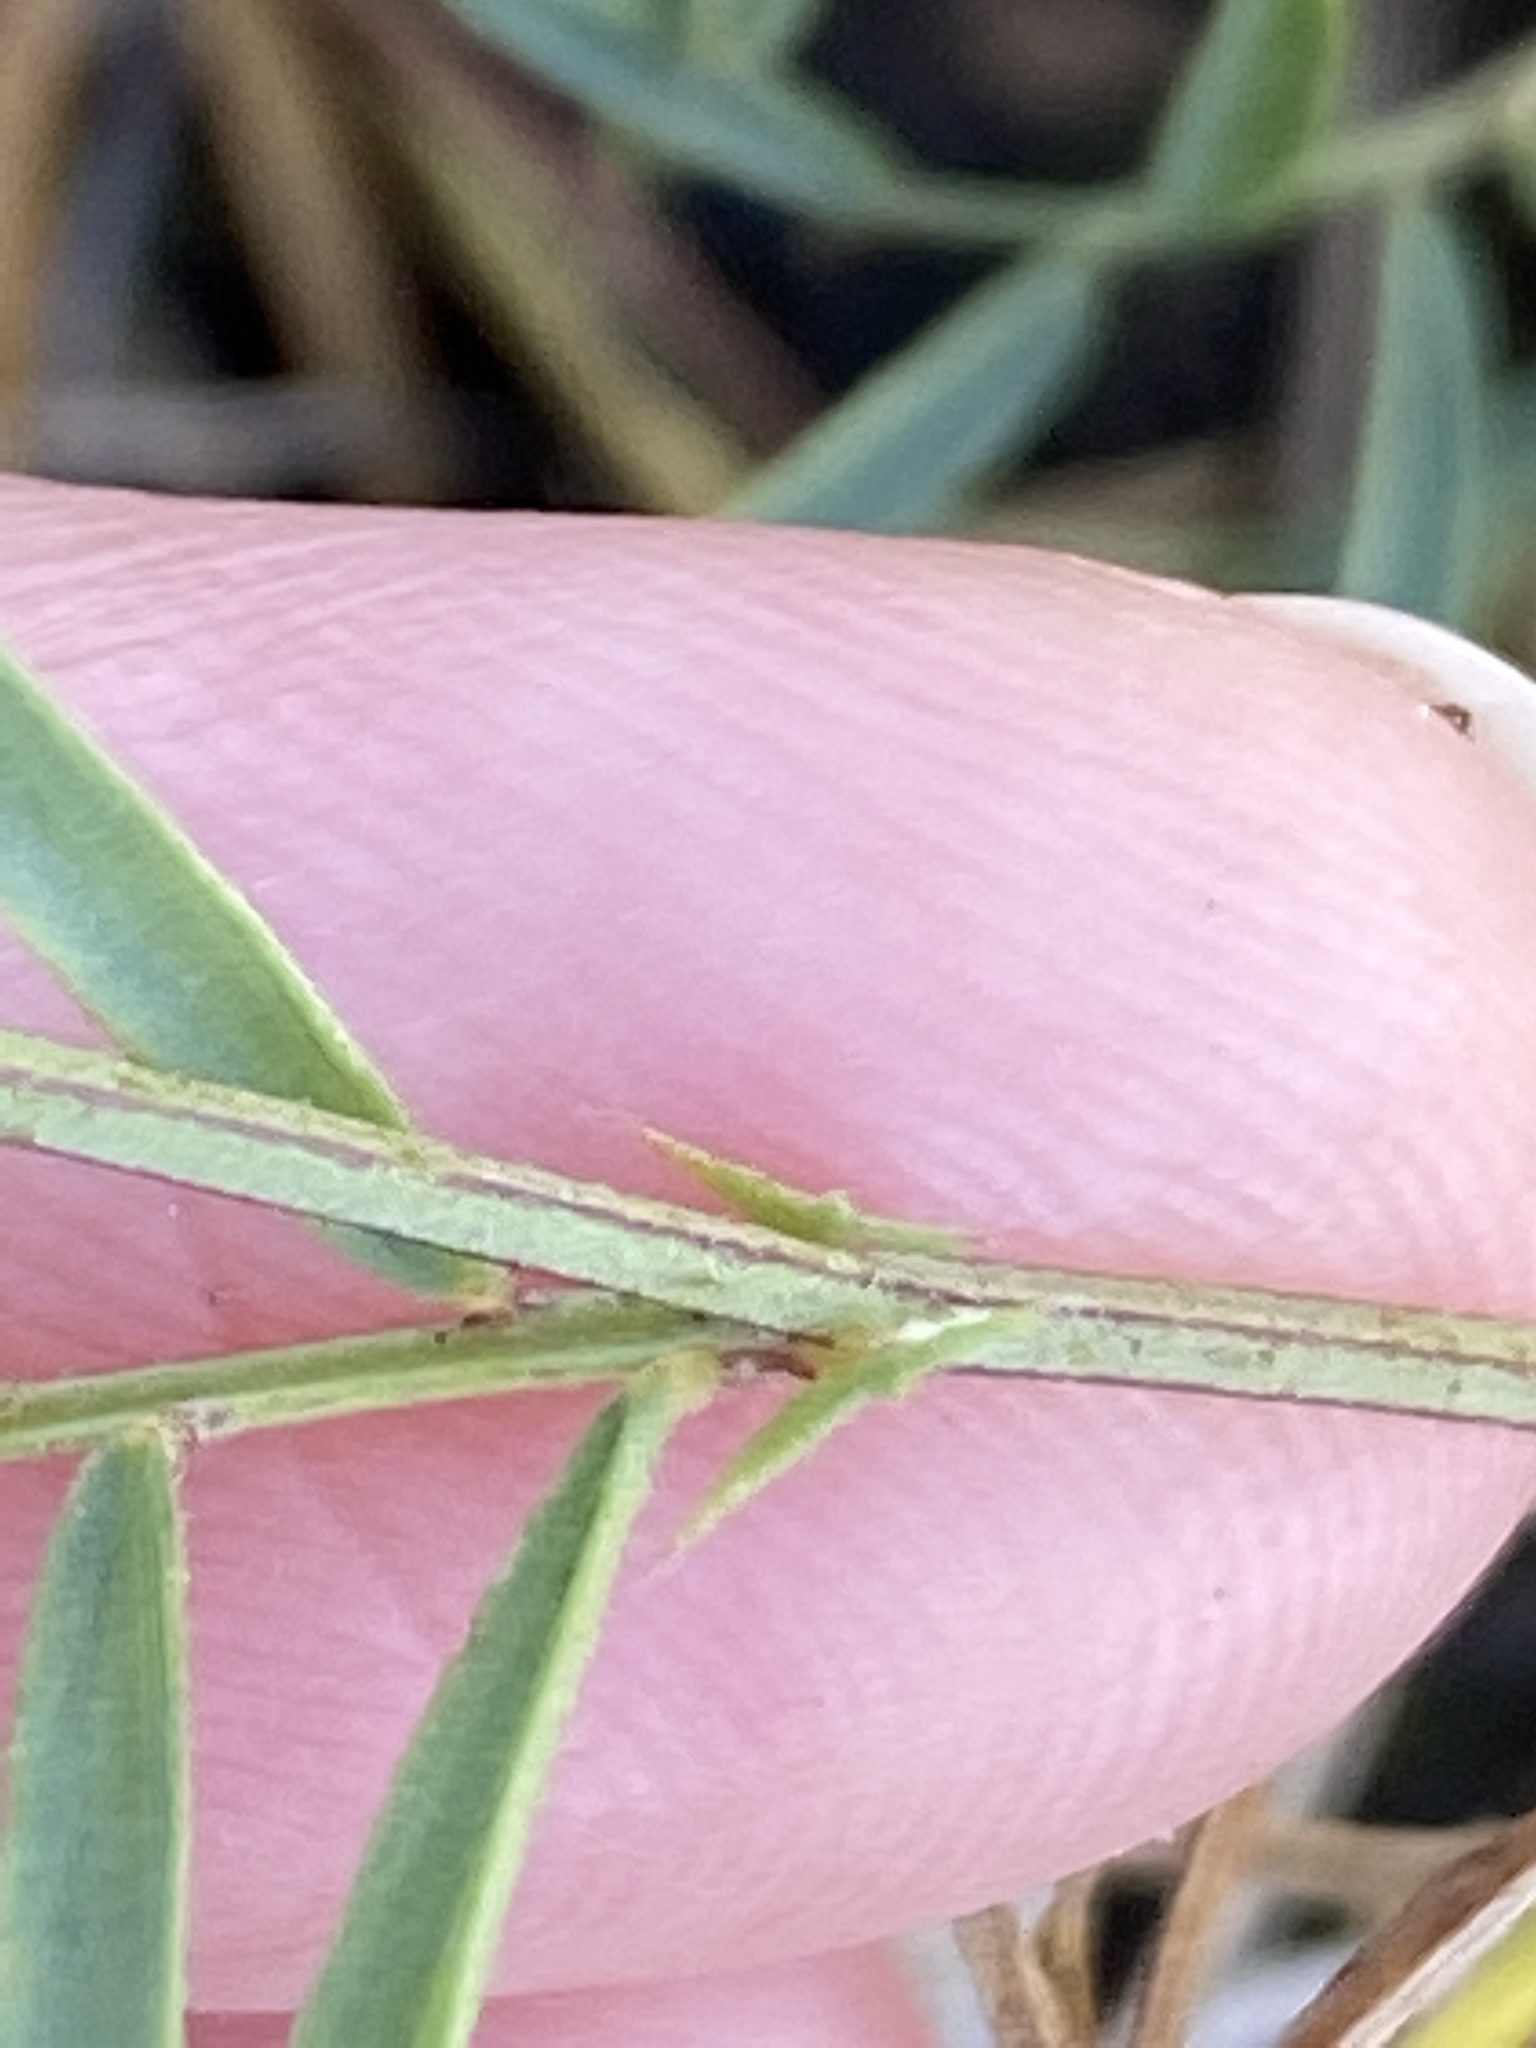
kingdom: Plantae
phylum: Tracheophyta
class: Magnoliopsida
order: Fabales
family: Fabaceae
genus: Vicia
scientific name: Vicia americana
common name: American vetch
